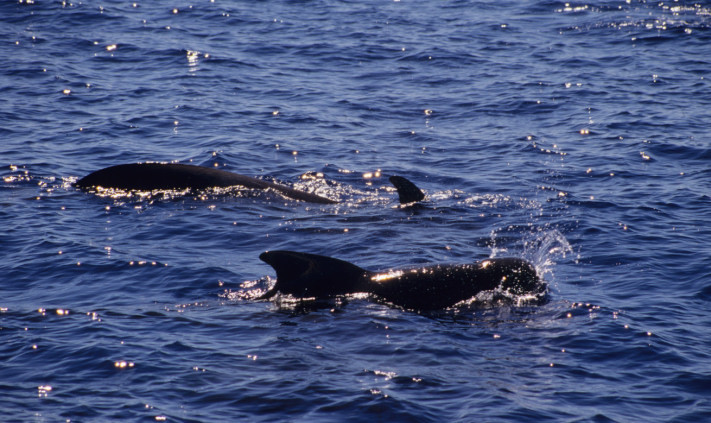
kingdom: Animalia
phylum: Chordata
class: Mammalia
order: Cetacea
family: Delphinidae
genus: Globicephala
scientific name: Globicephala macrorhynchus
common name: Short-finned pilot whale
